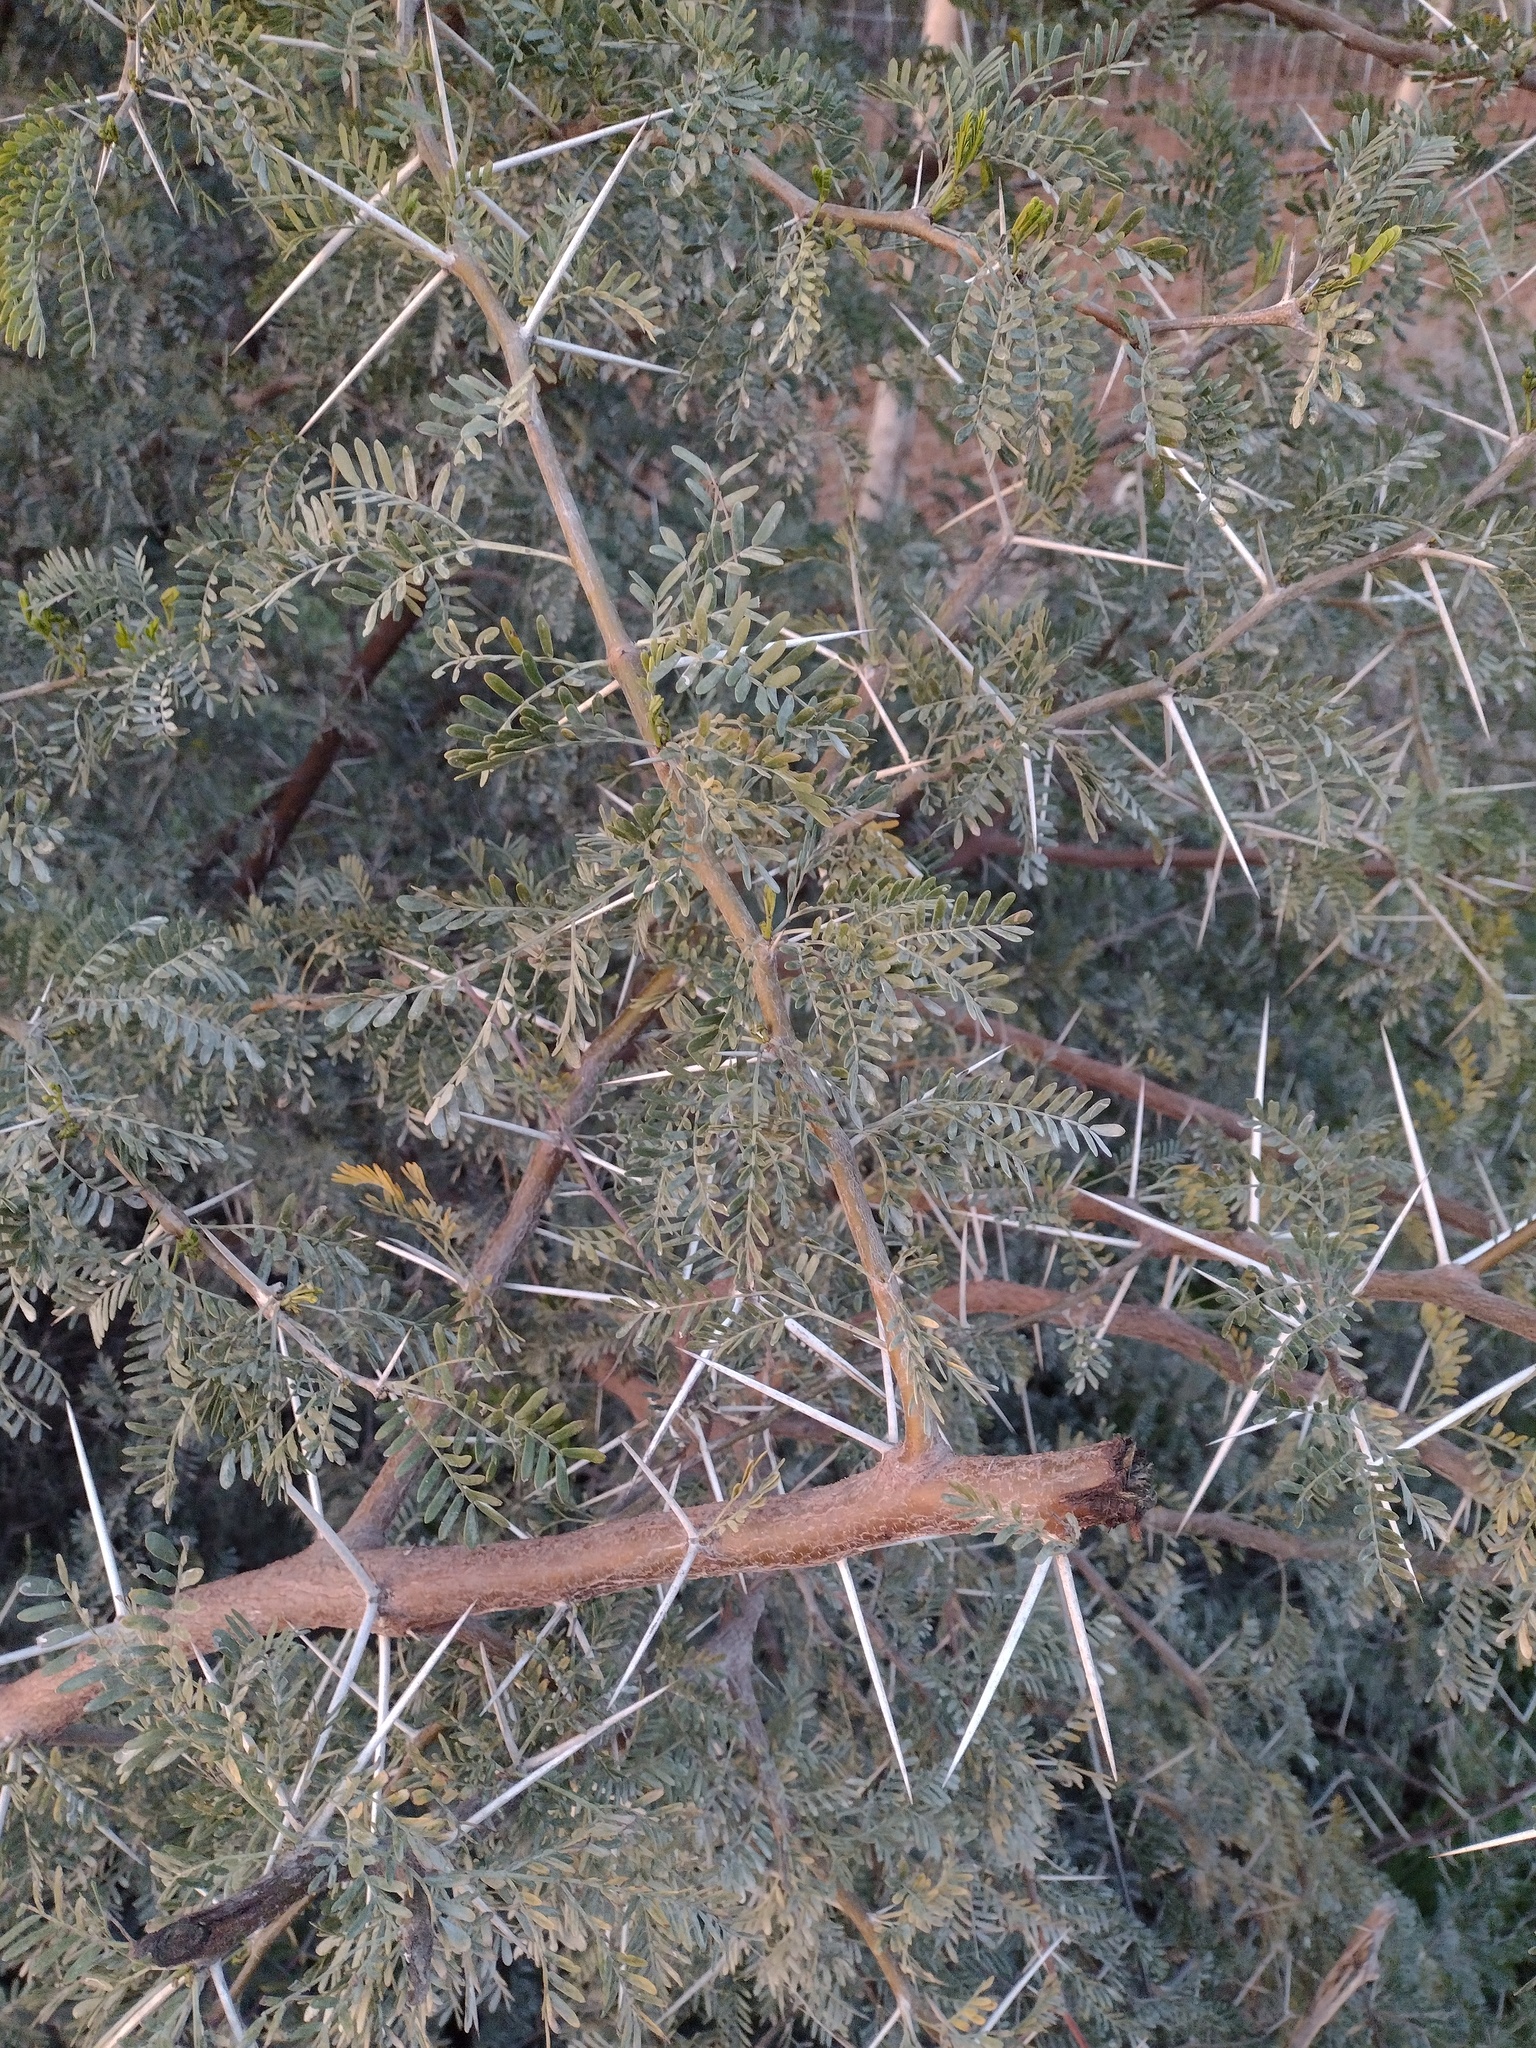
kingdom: Plantae
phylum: Tracheophyta
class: Magnoliopsida
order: Fabales
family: Fabaceae
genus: Vachellia
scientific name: Vachellia karroo
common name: Sweet thorn
